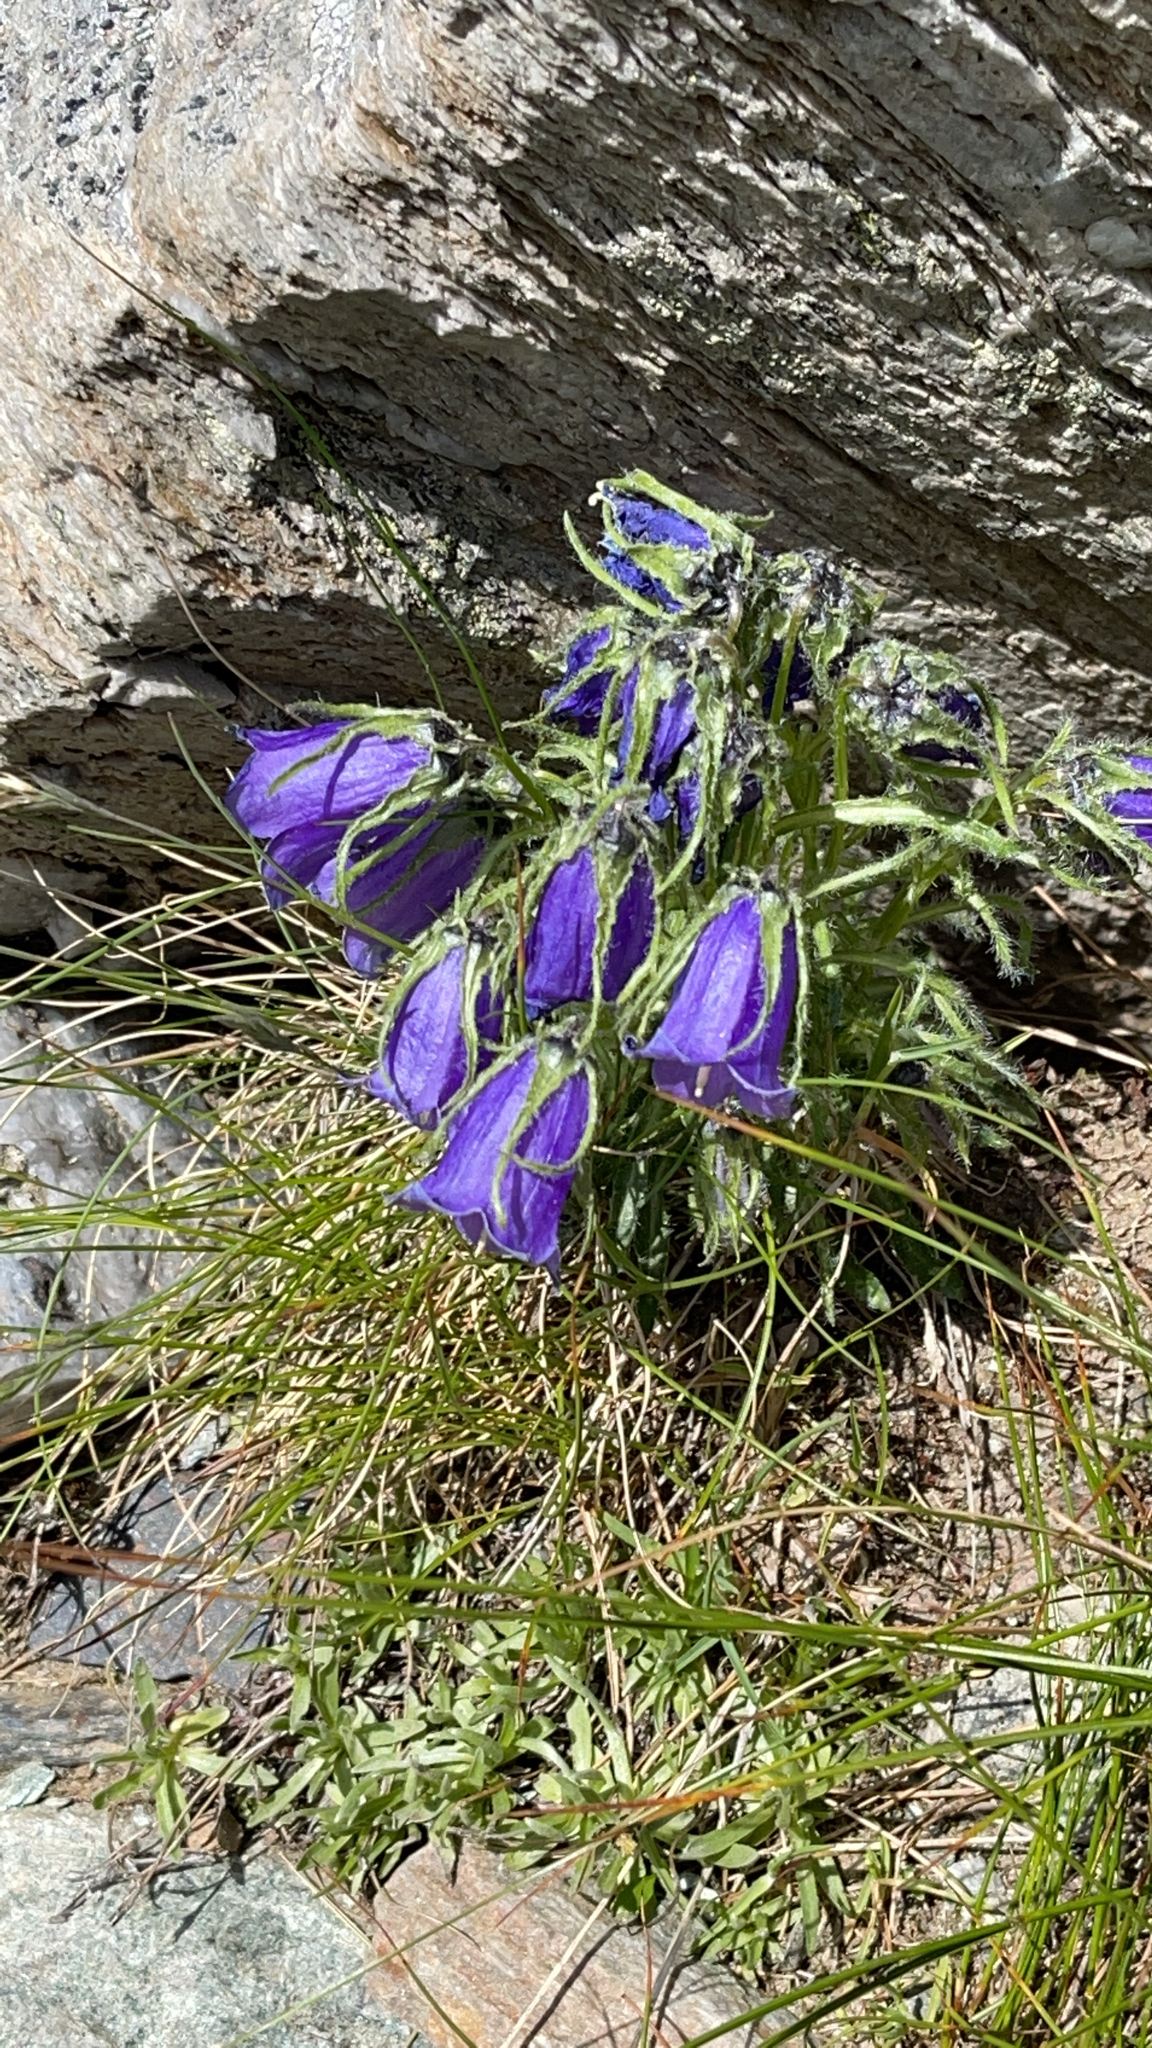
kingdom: Plantae
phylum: Tracheophyta
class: Magnoliopsida
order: Asterales
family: Campanulaceae
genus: Campanula
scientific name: Campanula alpina
